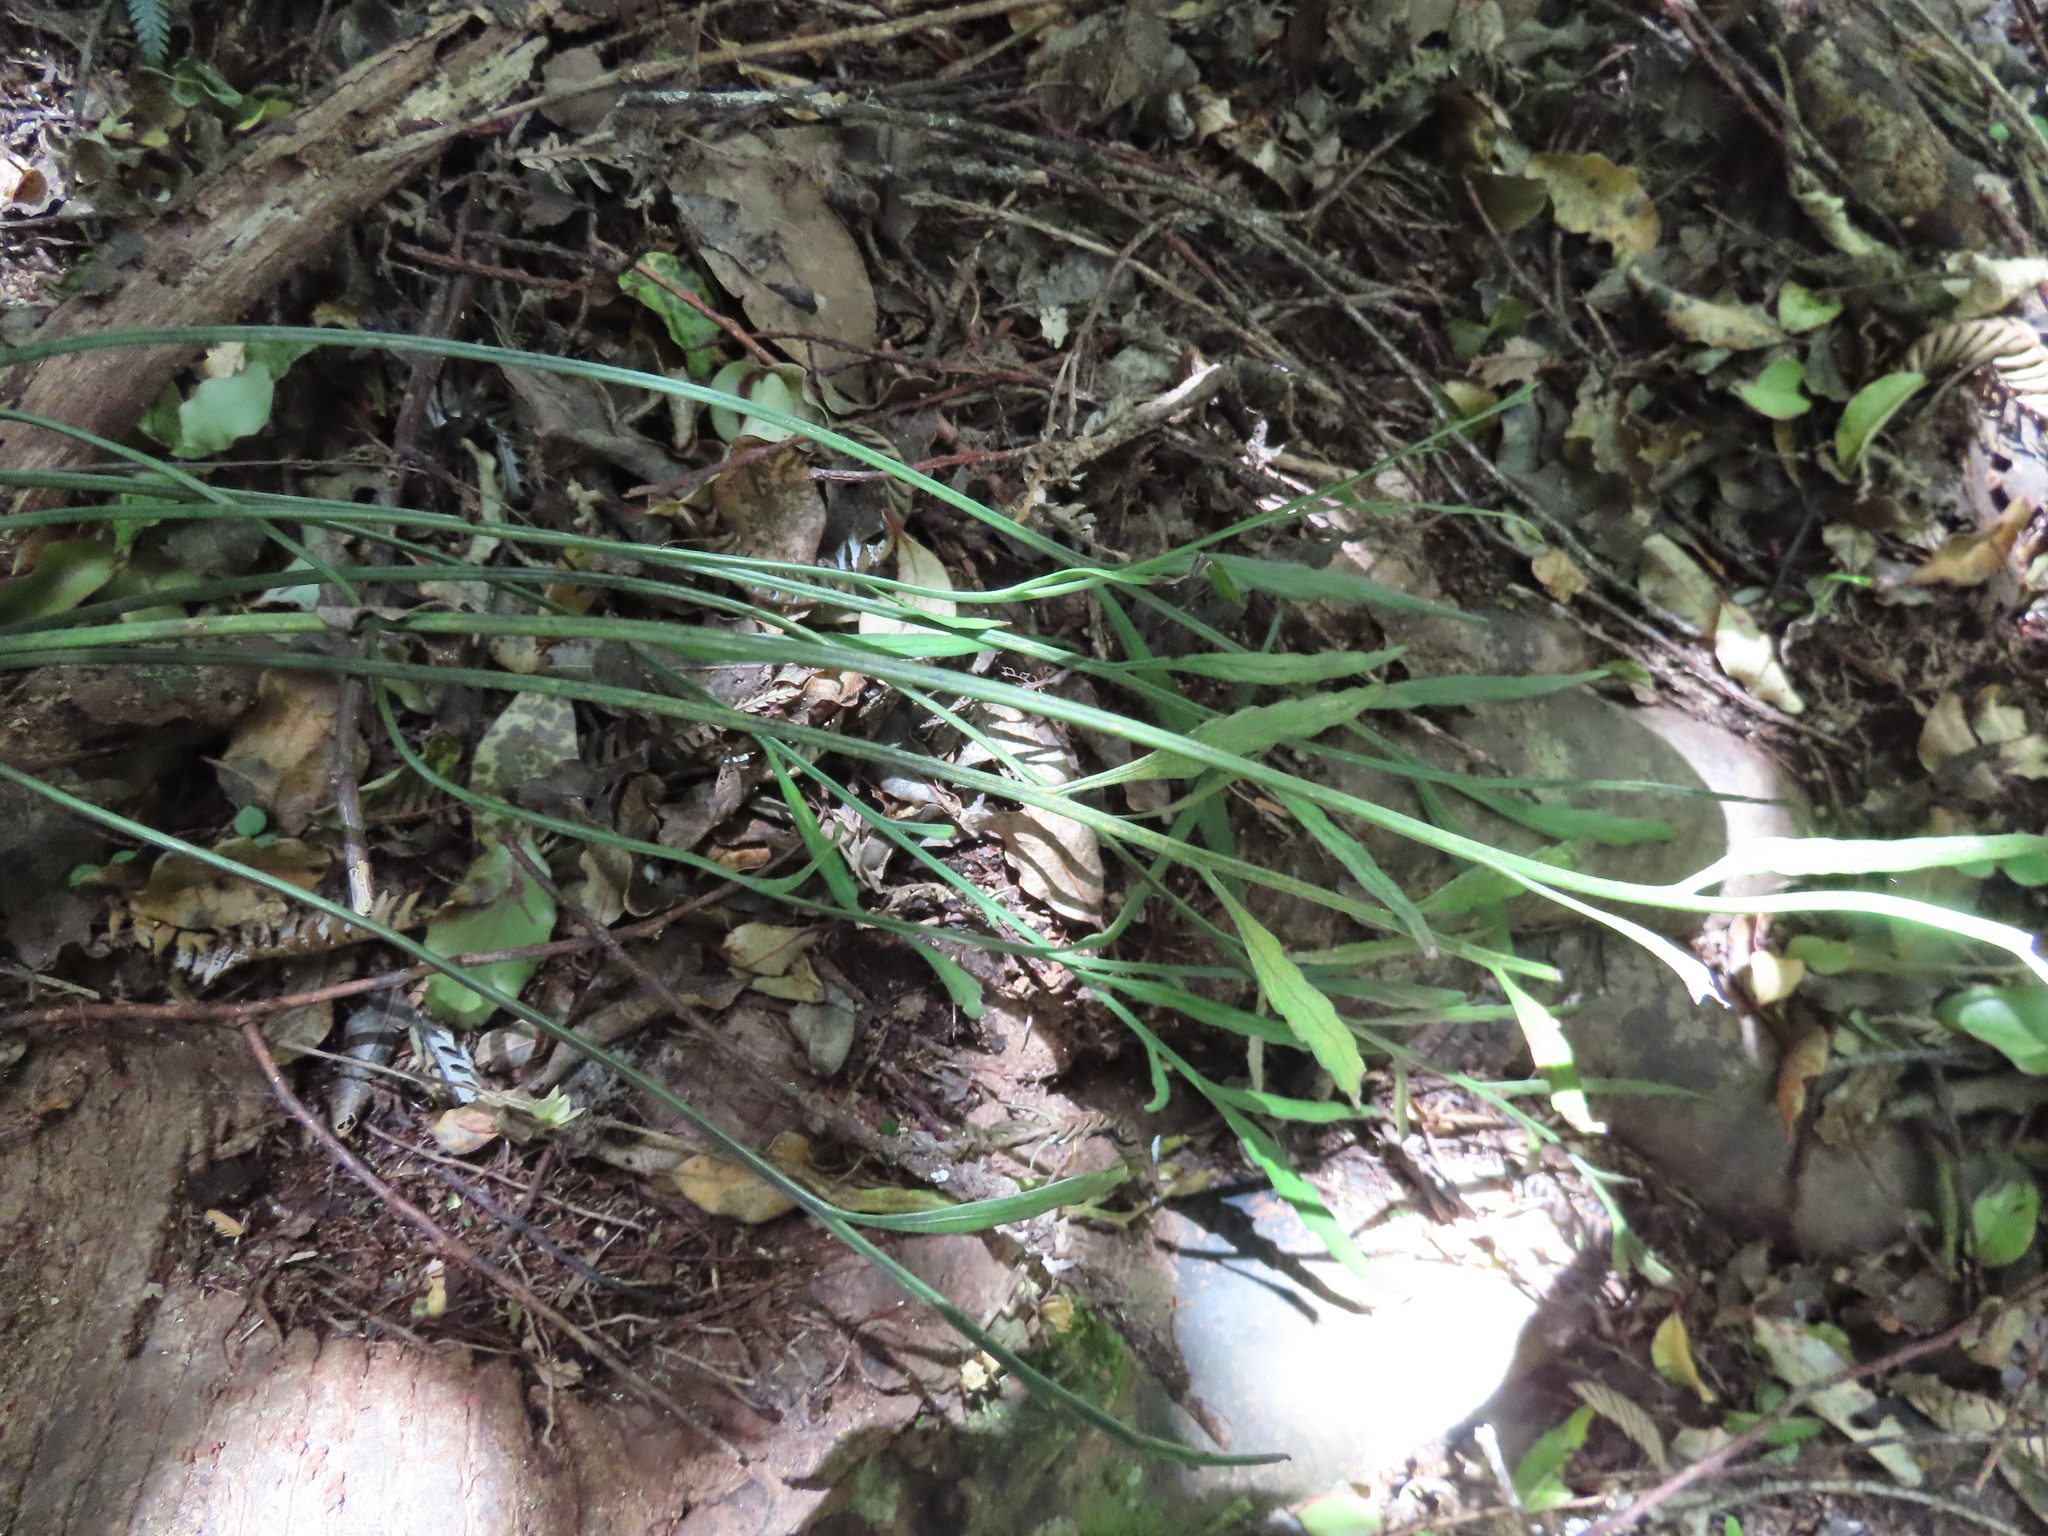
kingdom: Plantae
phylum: Tracheophyta
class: Polypodiopsida
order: Polypodiales
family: Aspleniaceae
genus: Asplenium
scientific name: Asplenium flaccidum
